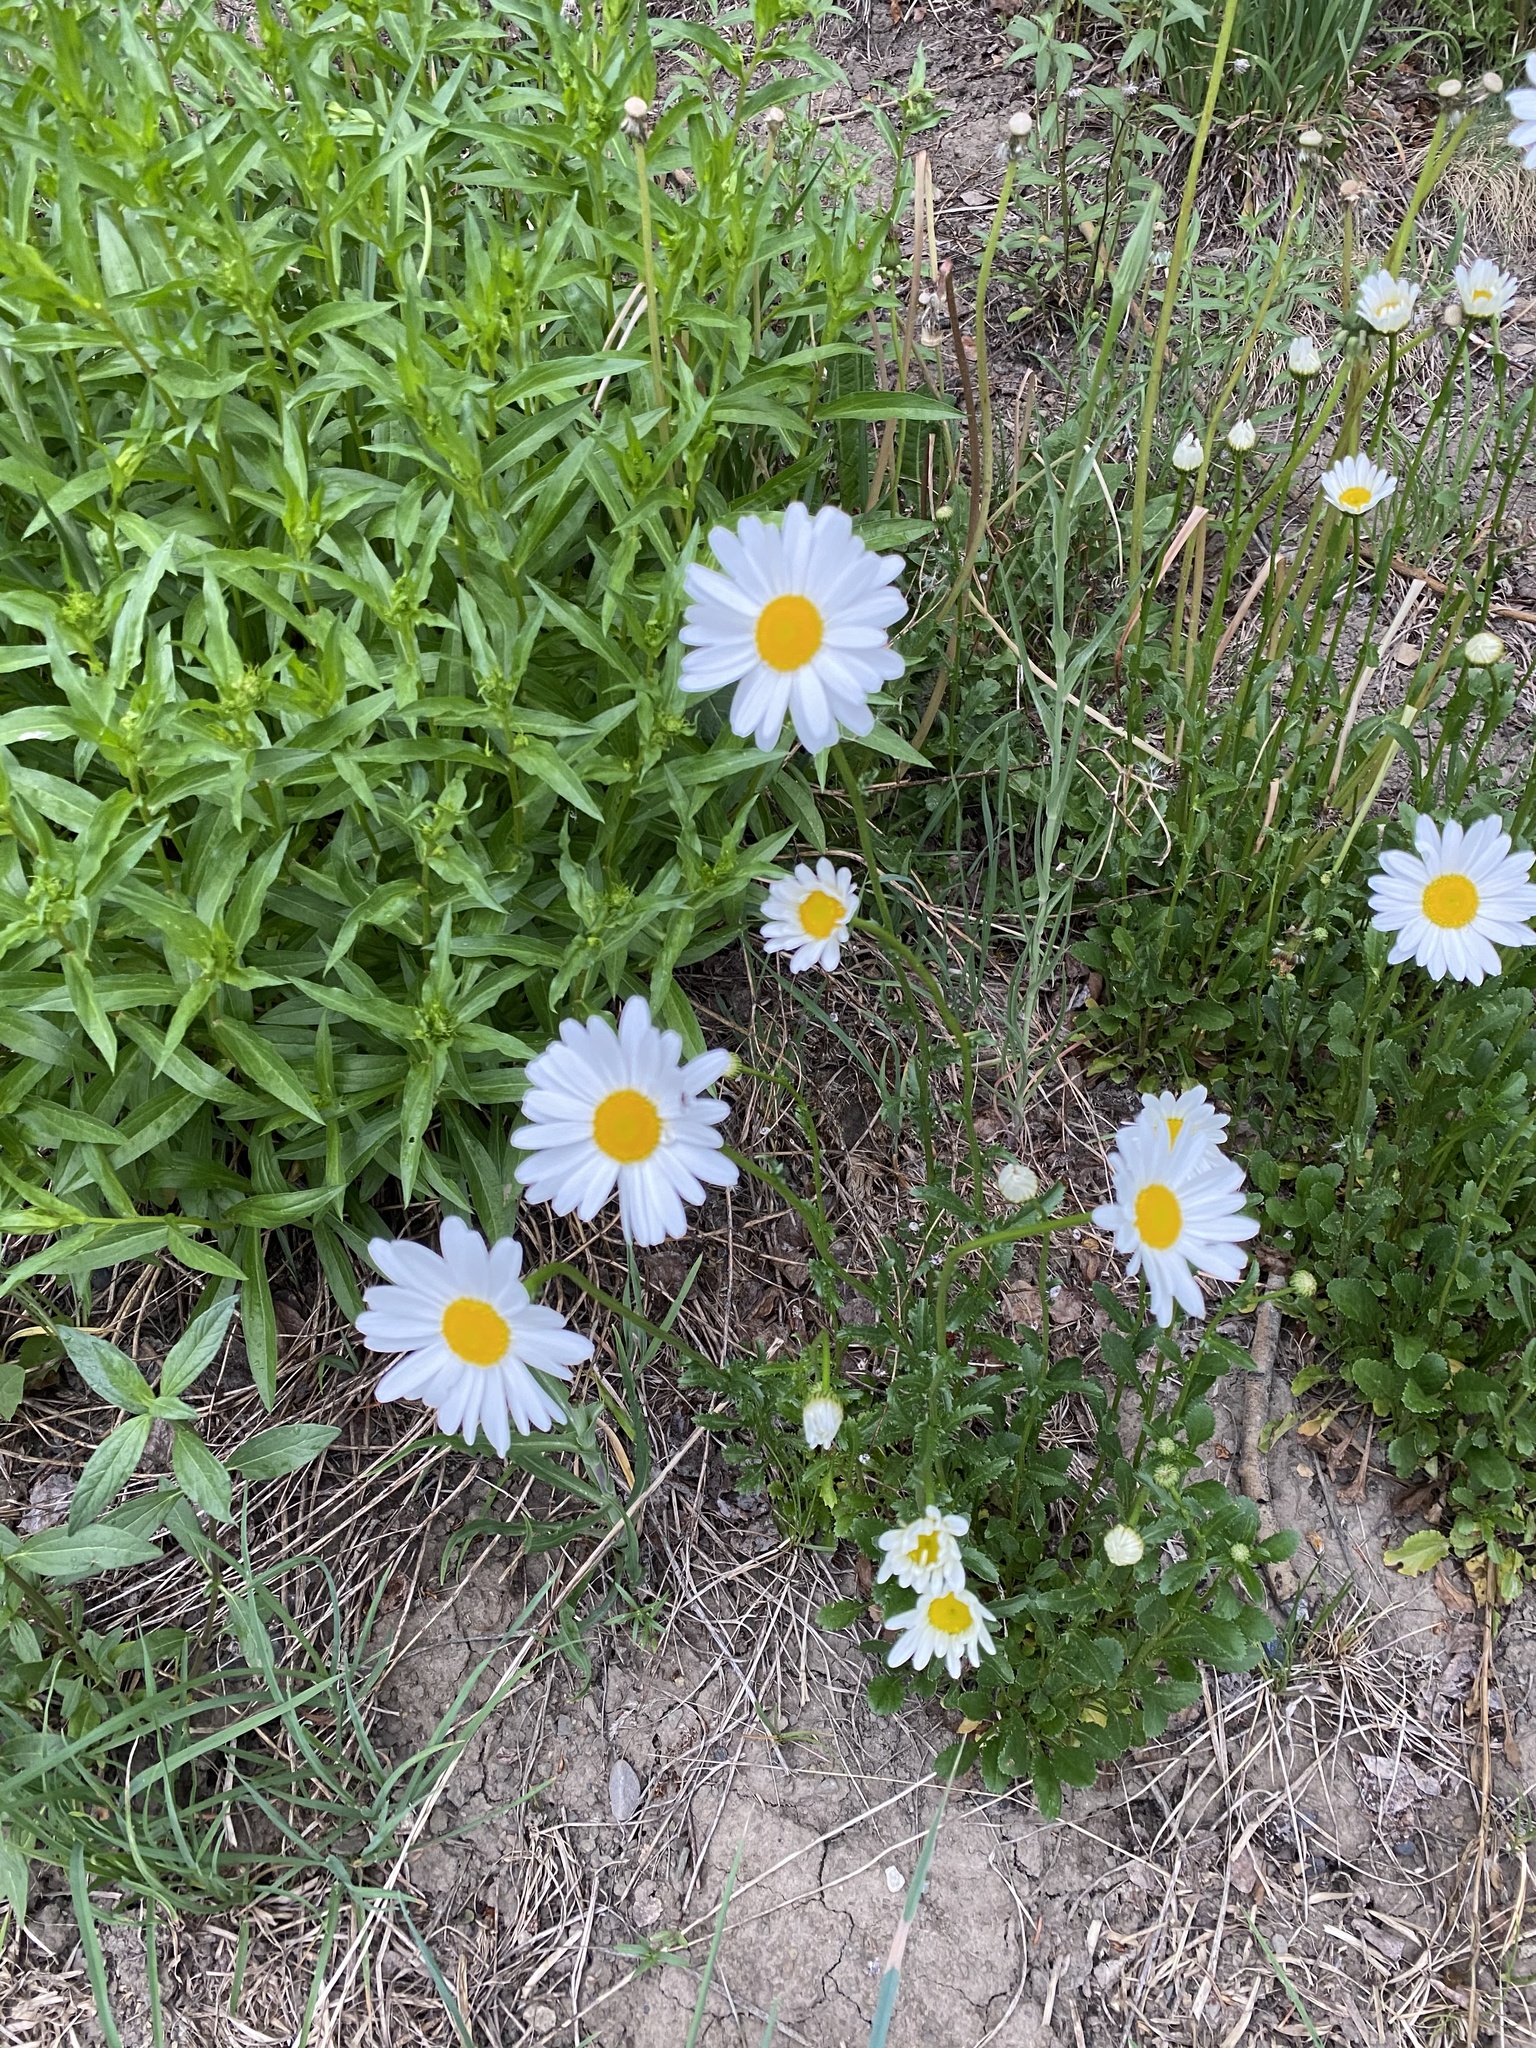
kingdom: Plantae
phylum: Tracheophyta
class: Magnoliopsida
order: Asterales
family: Asteraceae
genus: Leucanthemum
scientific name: Leucanthemum vulgare
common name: Oxeye daisy
